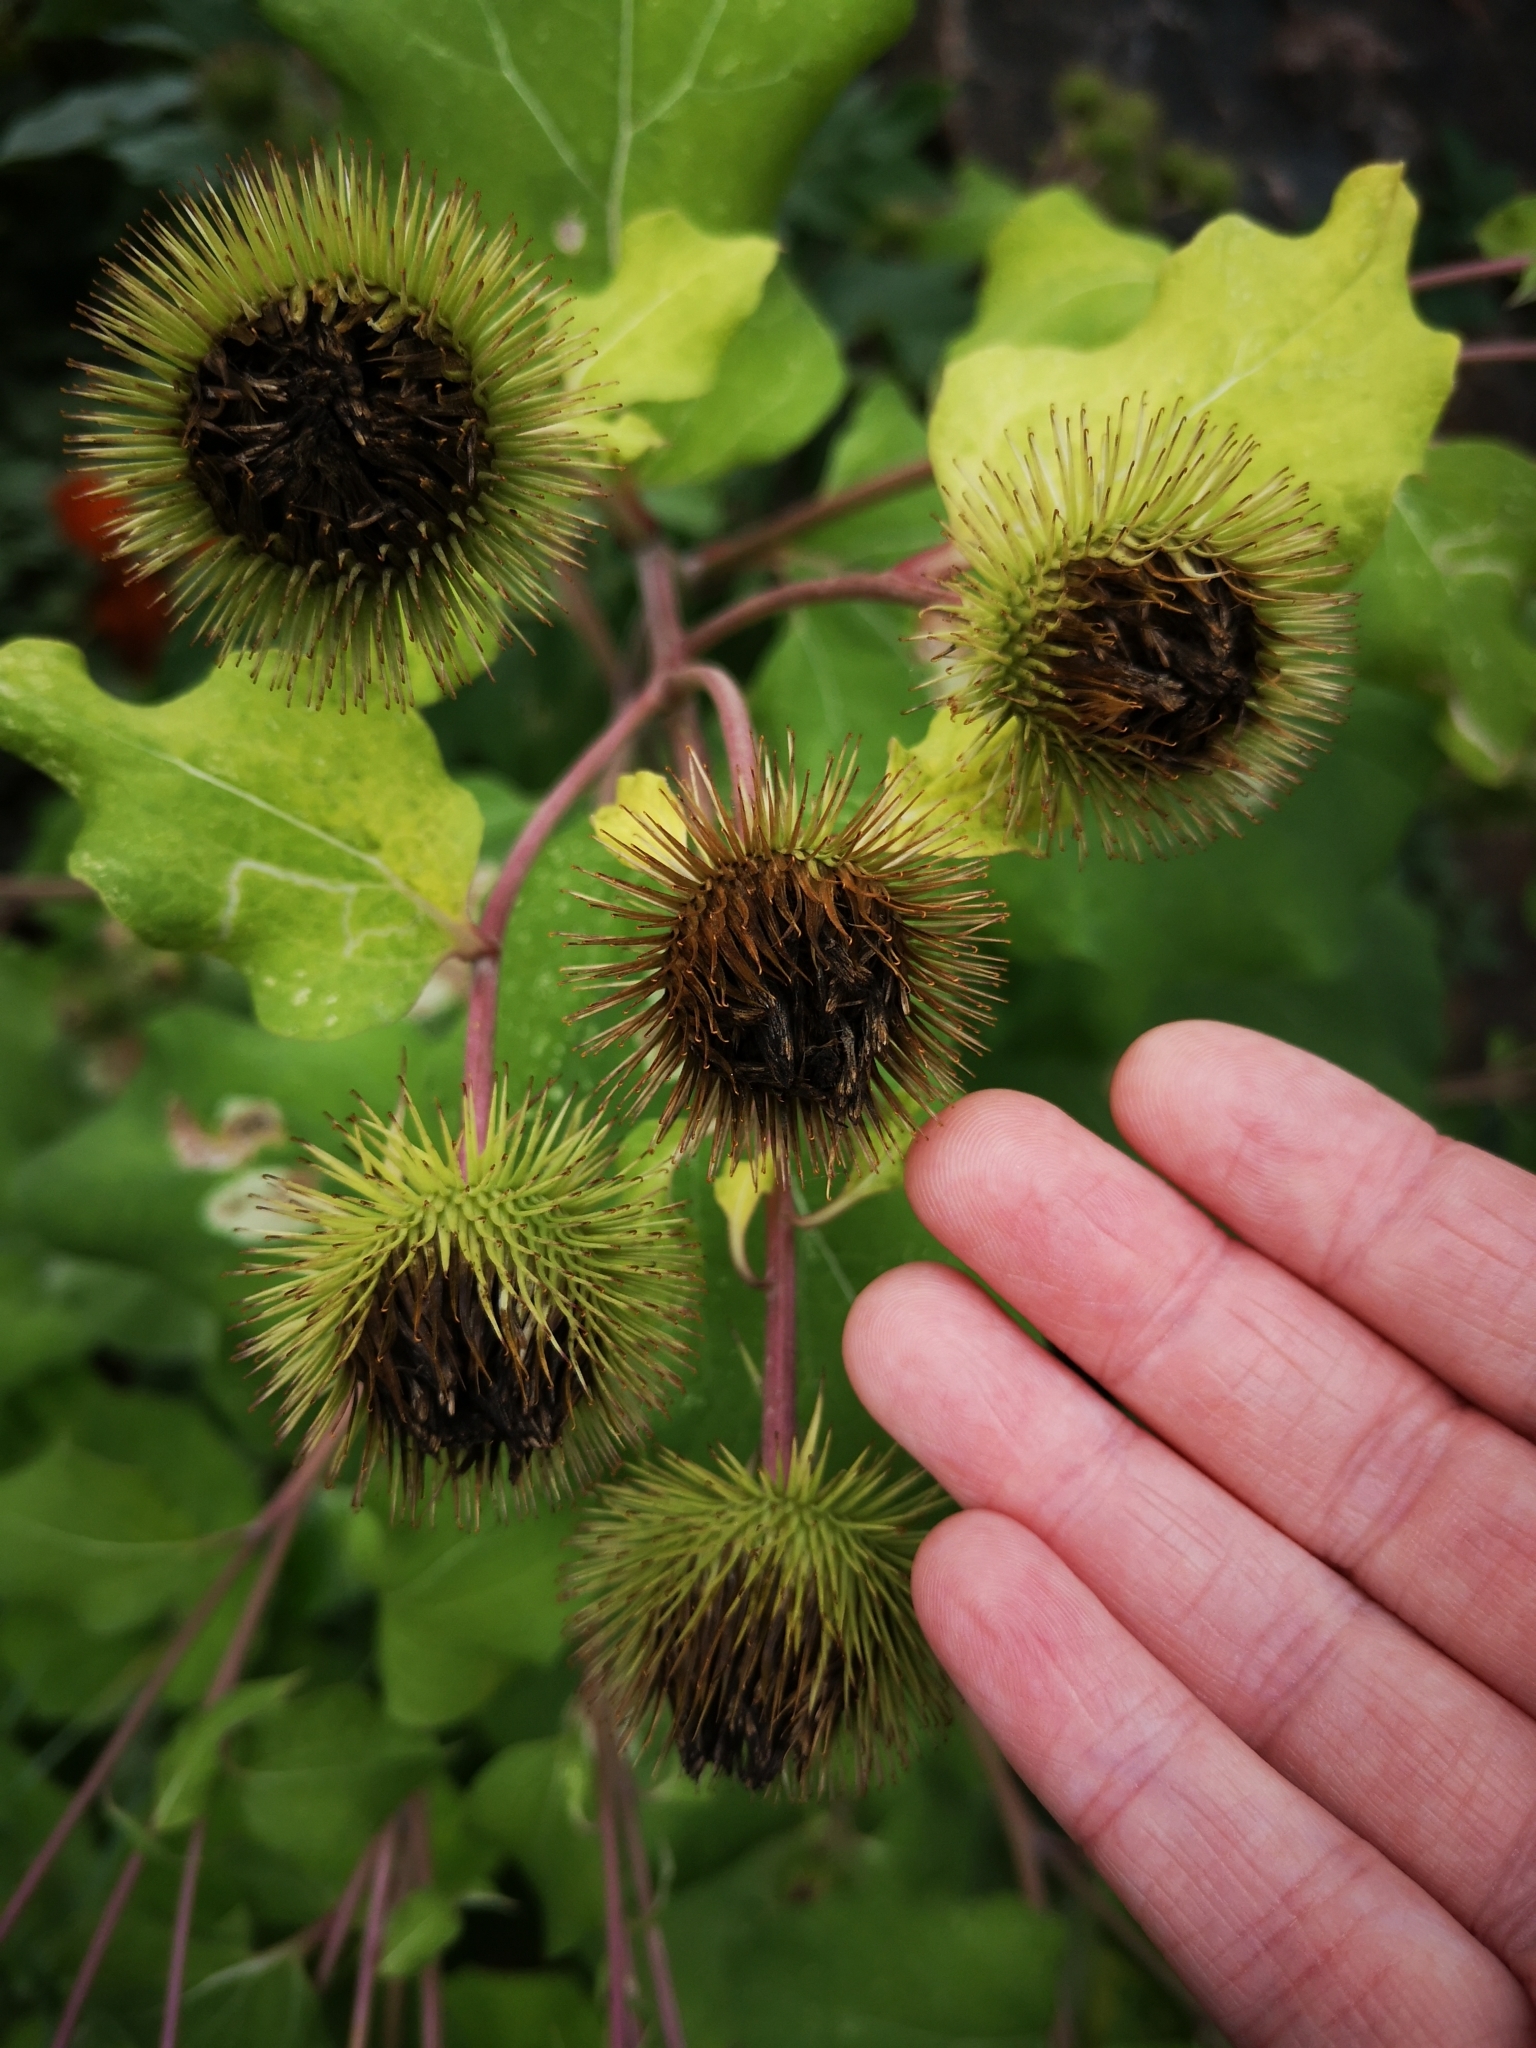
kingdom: Plantae
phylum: Tracheophyta
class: Magnoliopsida
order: Asterales
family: Asteraceae
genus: Arctium
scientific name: Arctium lappa
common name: Greater burdock
